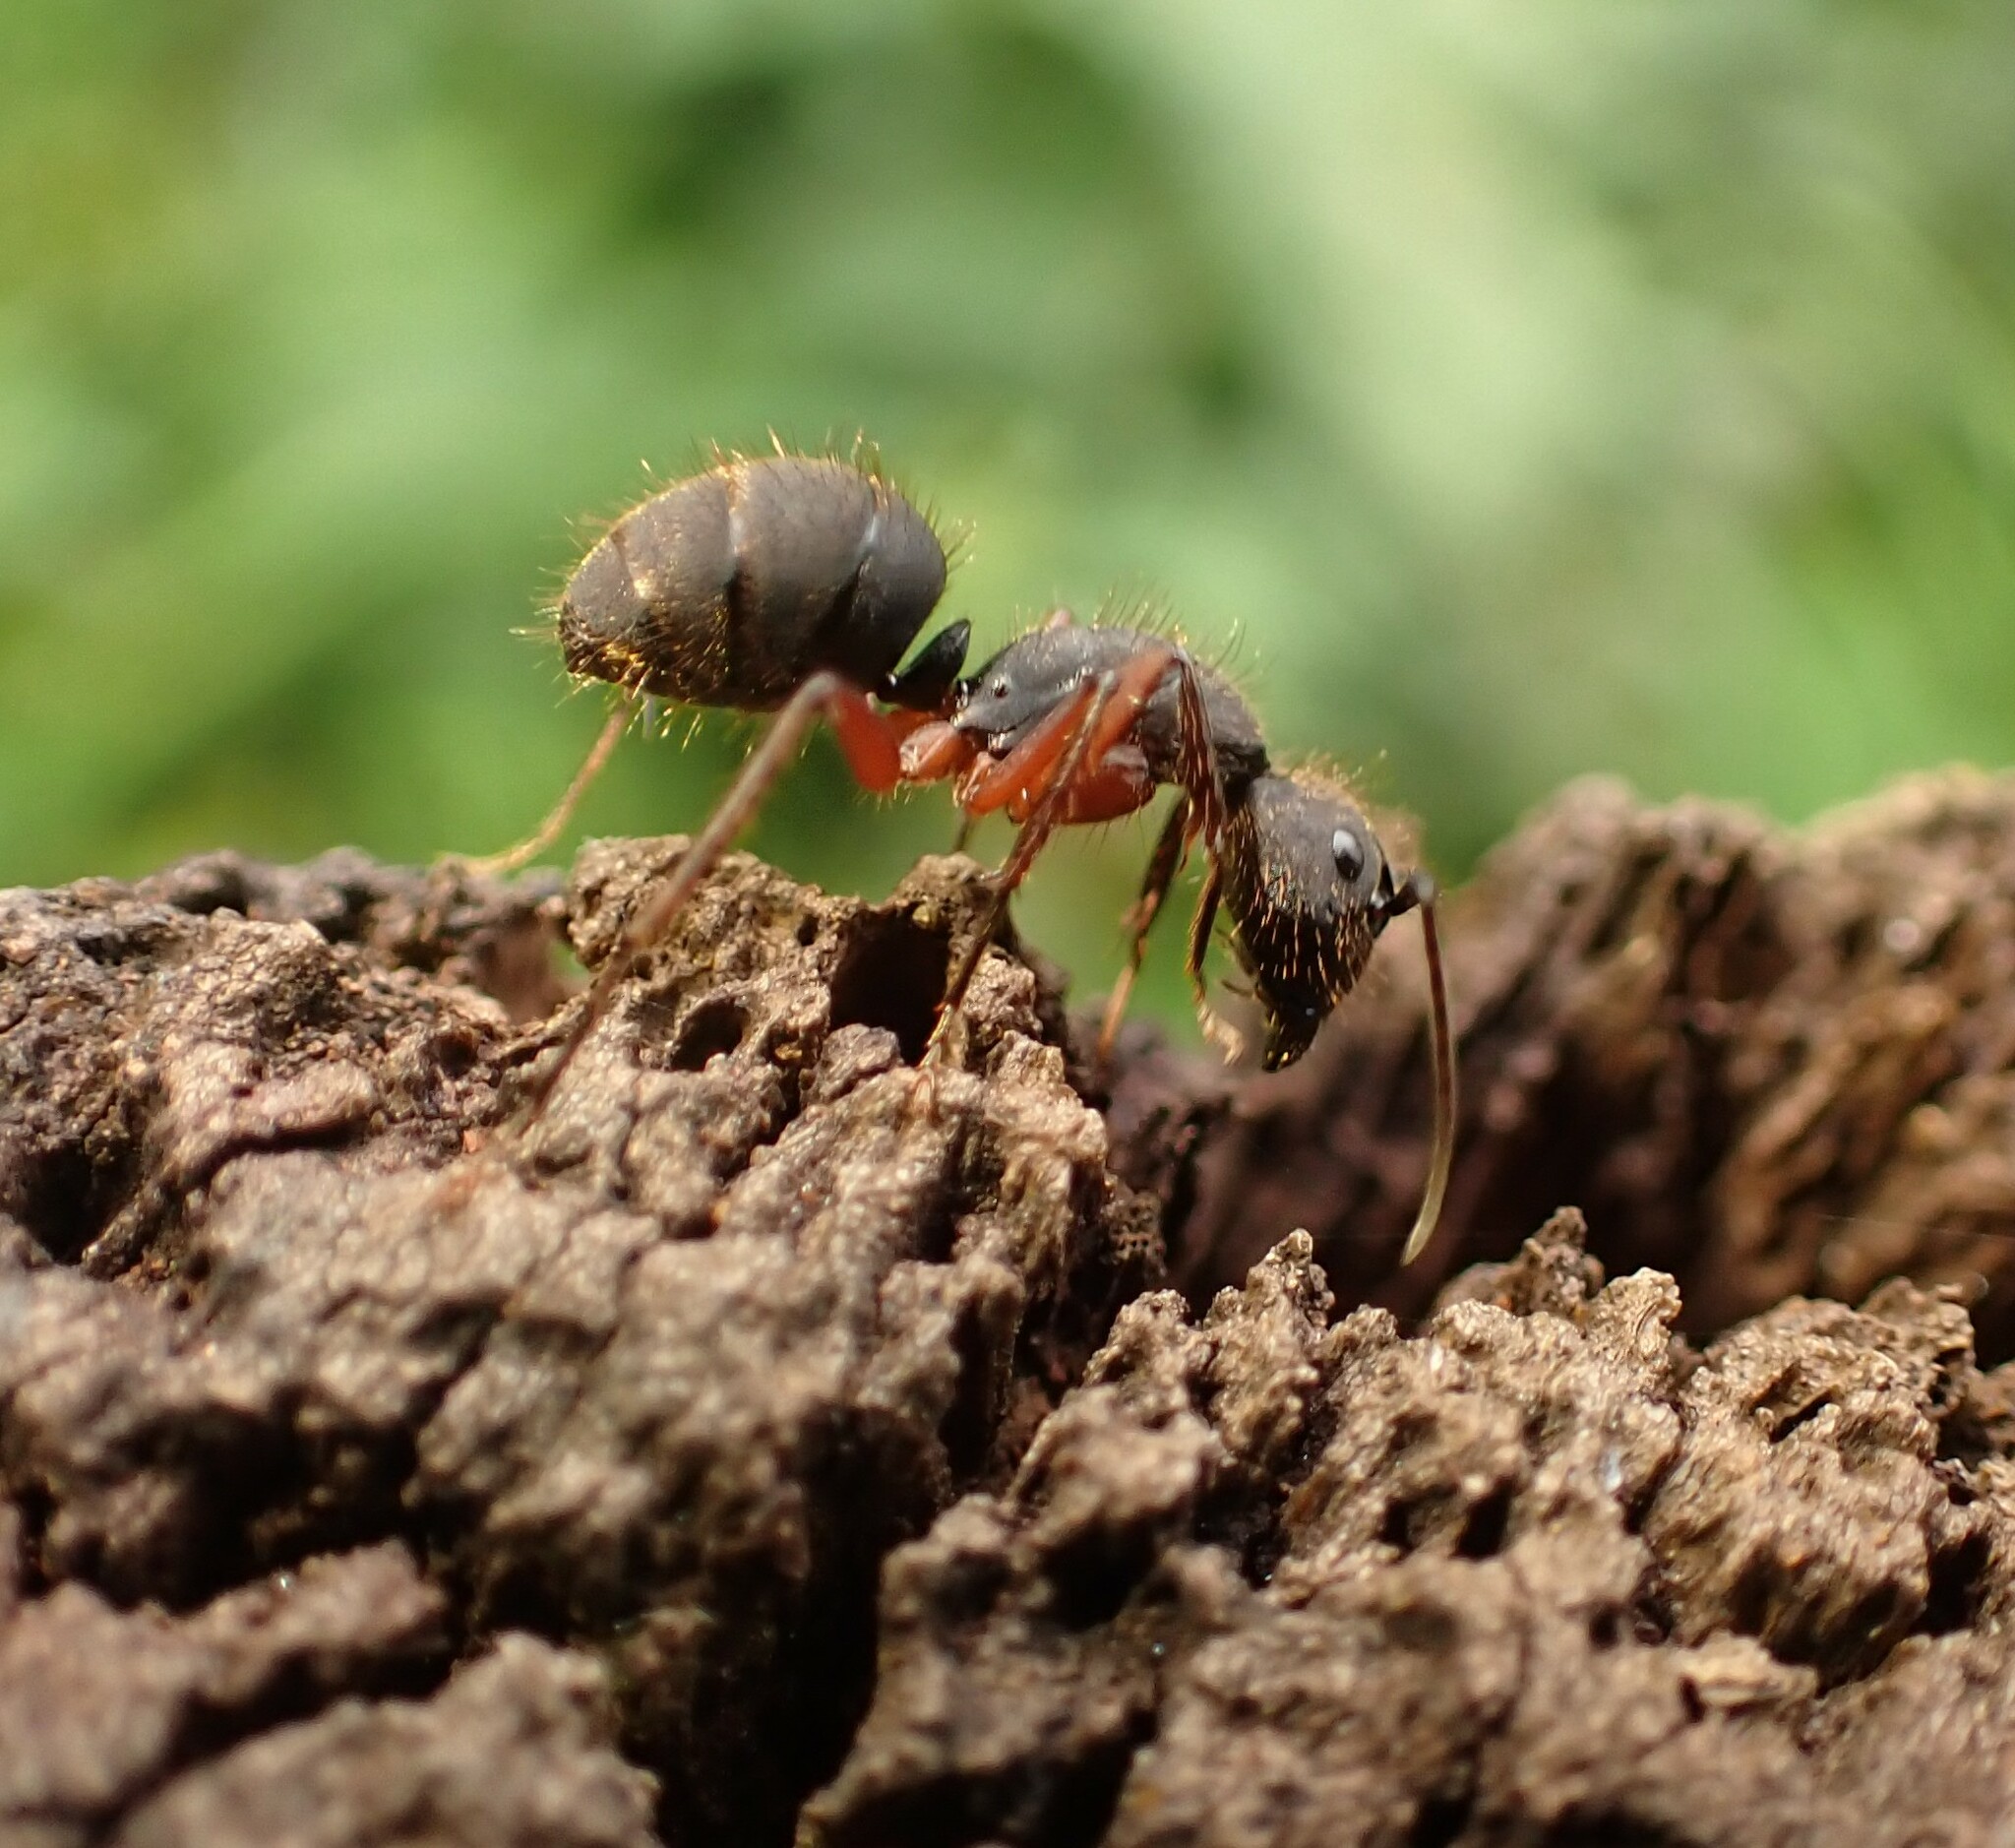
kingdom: Animalia
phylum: Arthropoda
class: Insecta
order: Hymenoptera
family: Formicidae
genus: Camponotus
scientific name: Camponotus rufipes
